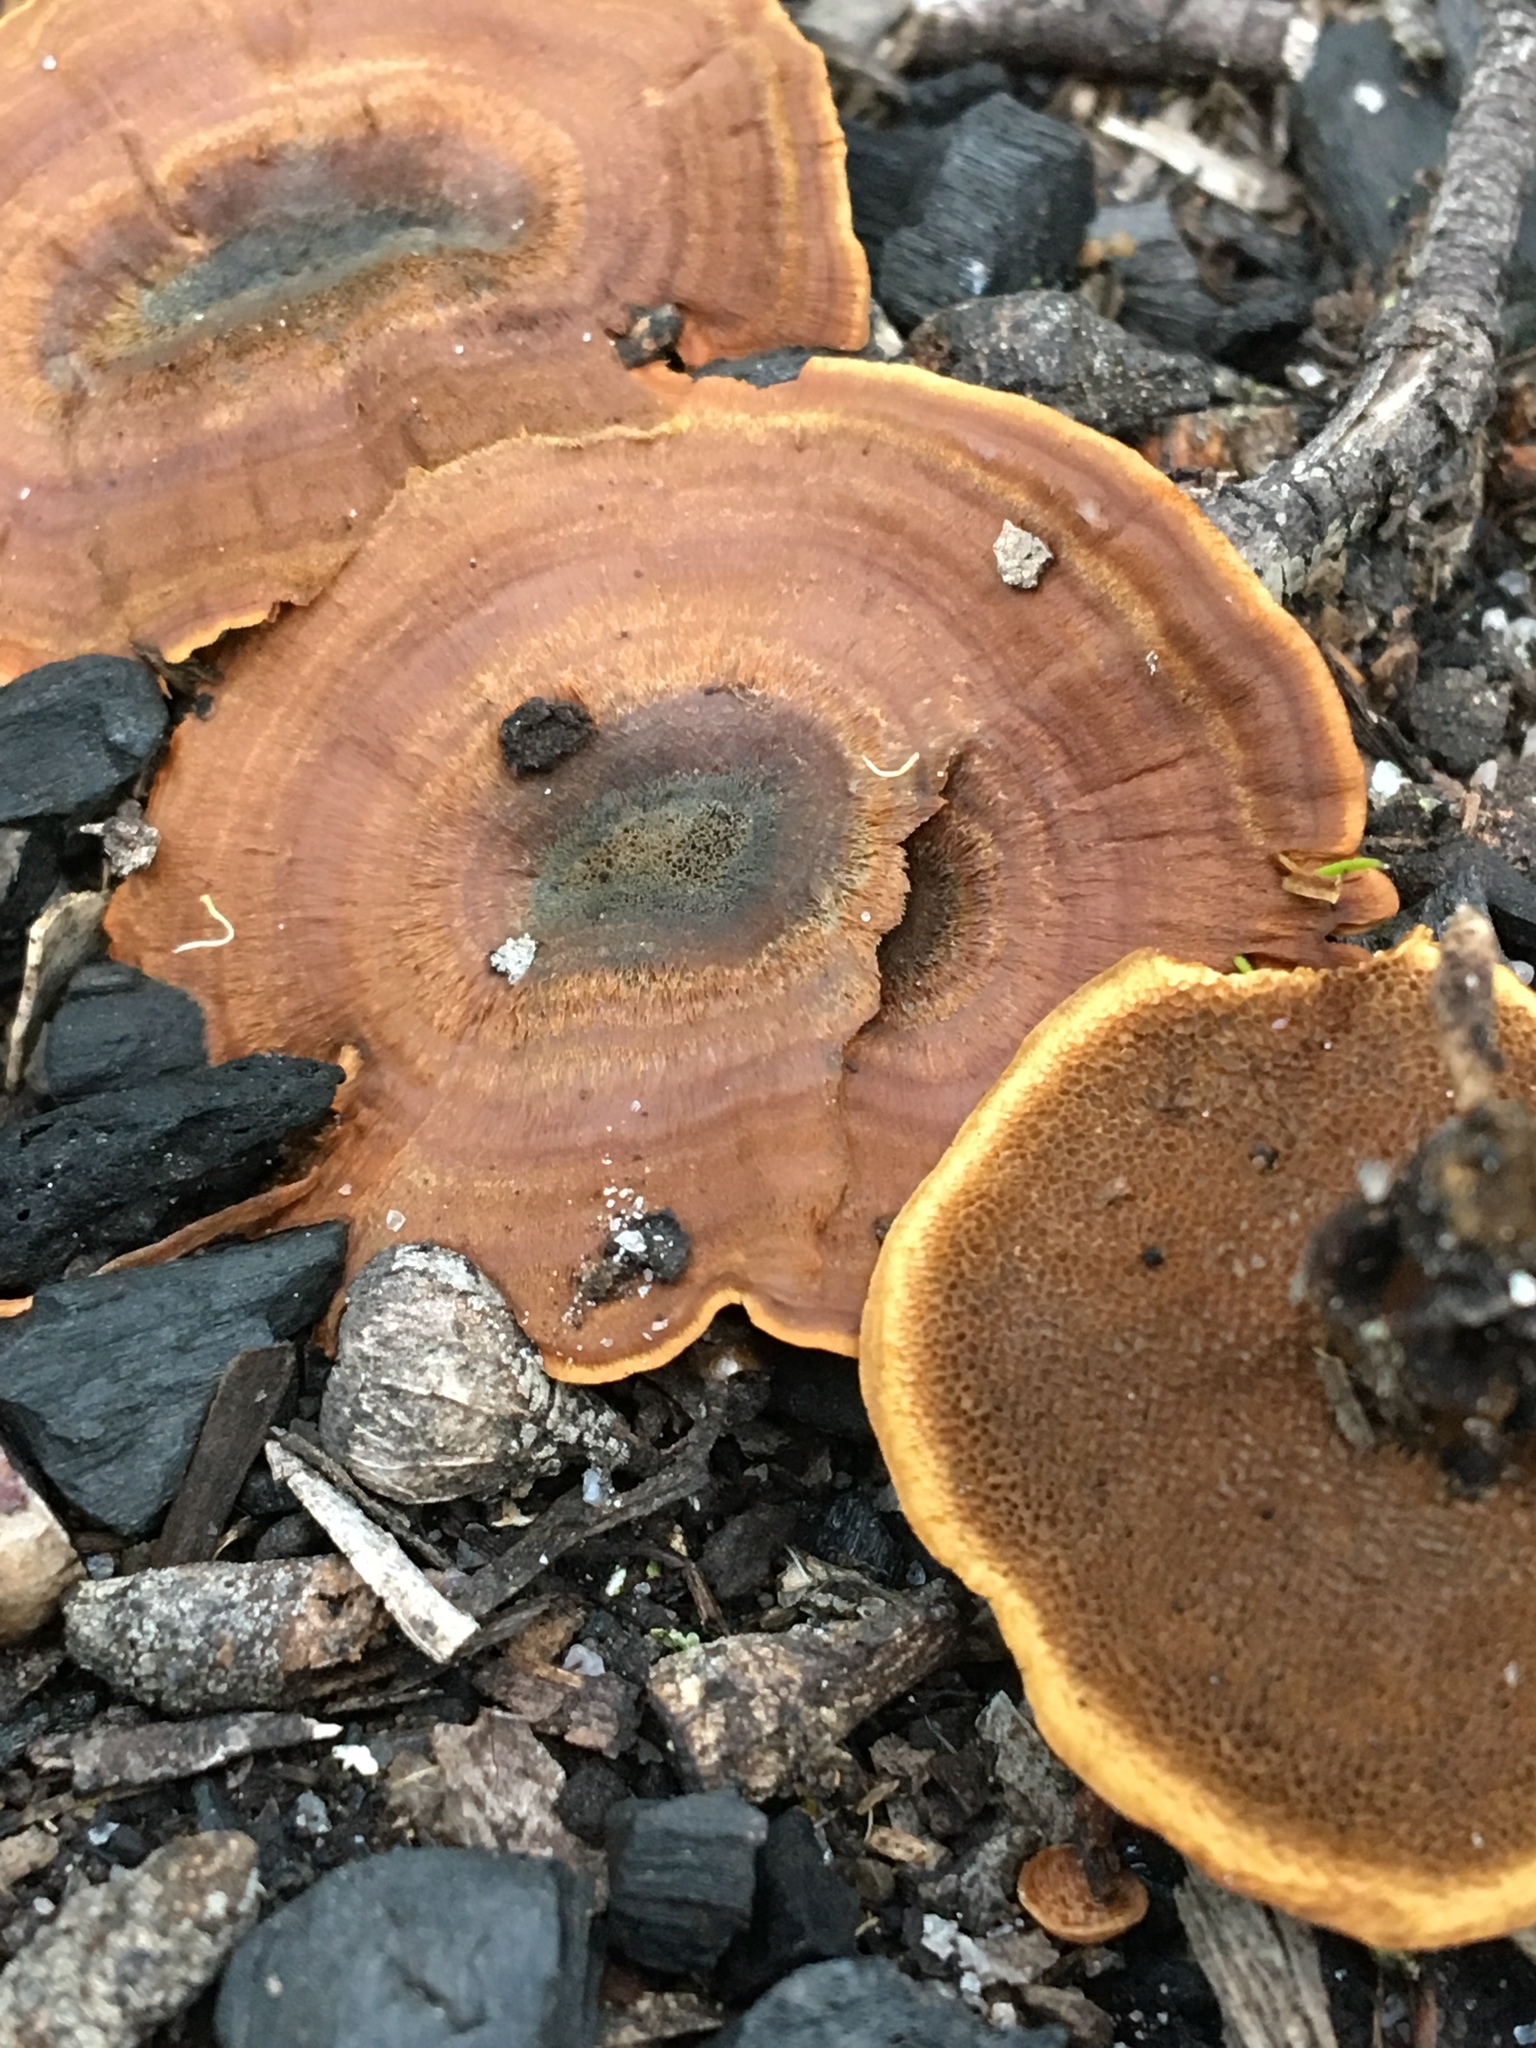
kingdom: Fungi
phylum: Basidiomycota
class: Agaricomycetes
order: Hymenochaetales
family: Hymenochaetaceae
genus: Coltricia
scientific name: Coltricia australica
